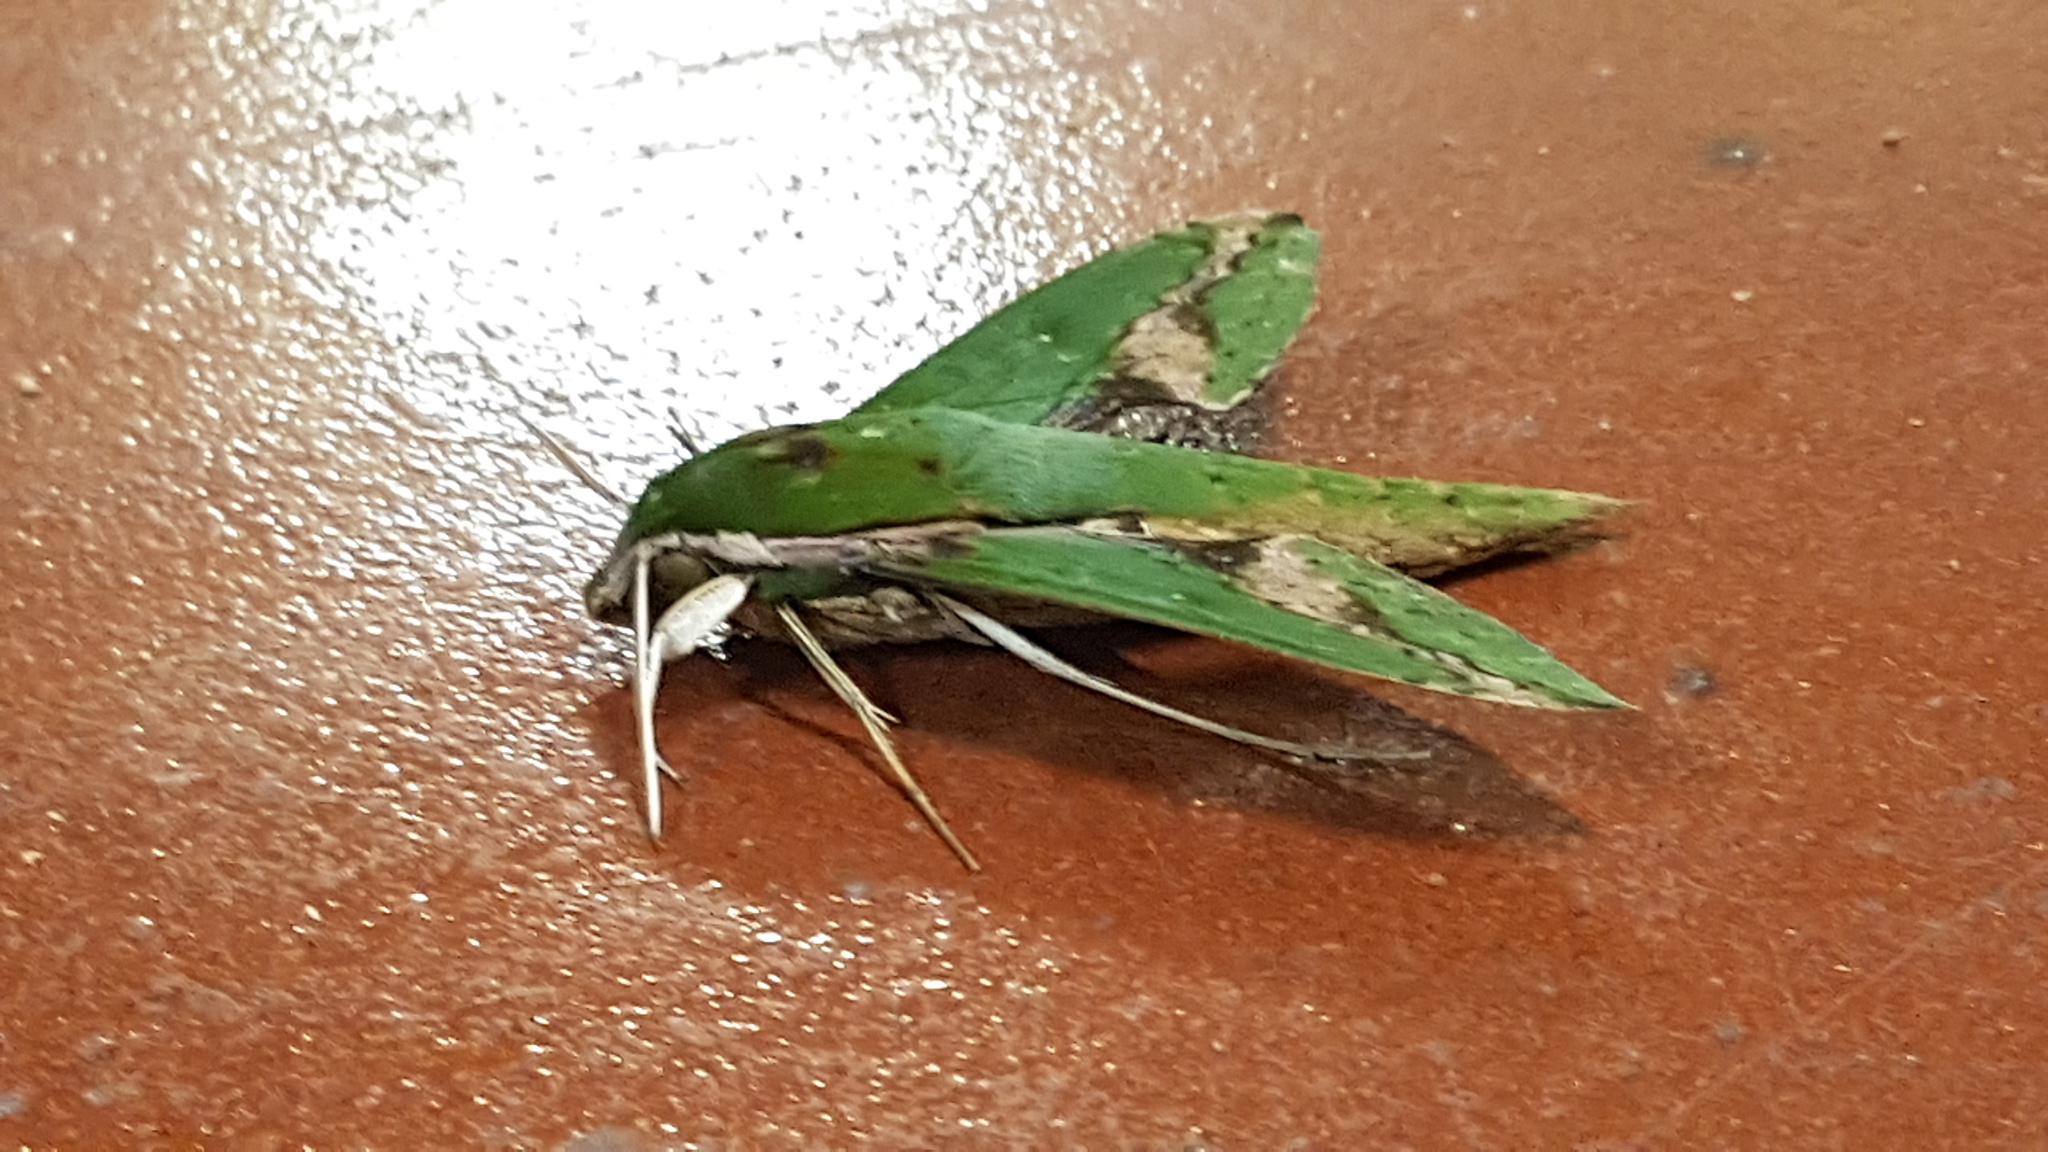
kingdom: Animalia
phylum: Arthropoda
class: Insecta
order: Lepidoptera
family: Sphingidae
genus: Xylophanes
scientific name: Xylophanes chiron
